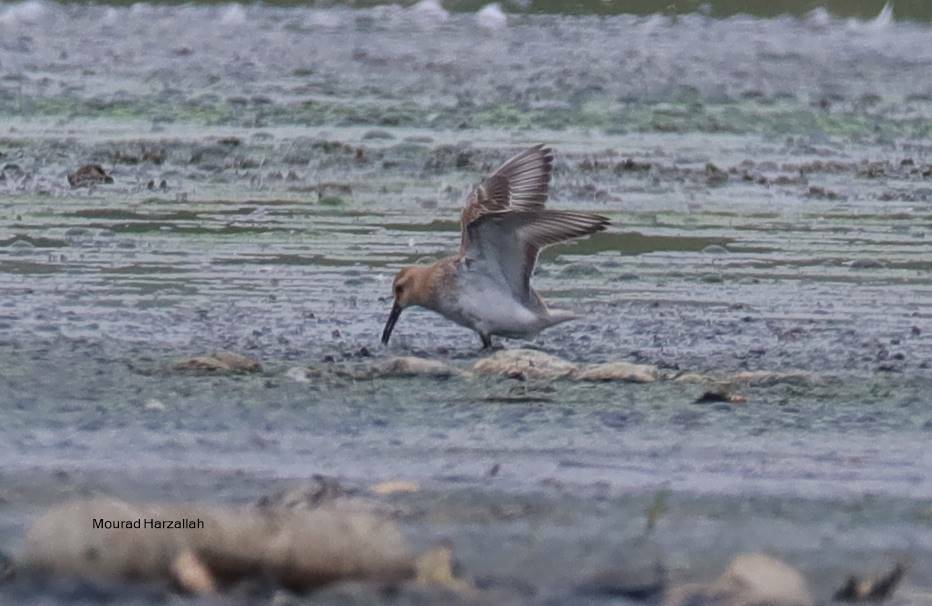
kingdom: Animalia
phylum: Chordata
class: Aves
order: Charadriiformes
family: Scolopacidae
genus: Calidris
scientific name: Calidris alpina
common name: Dunlin
